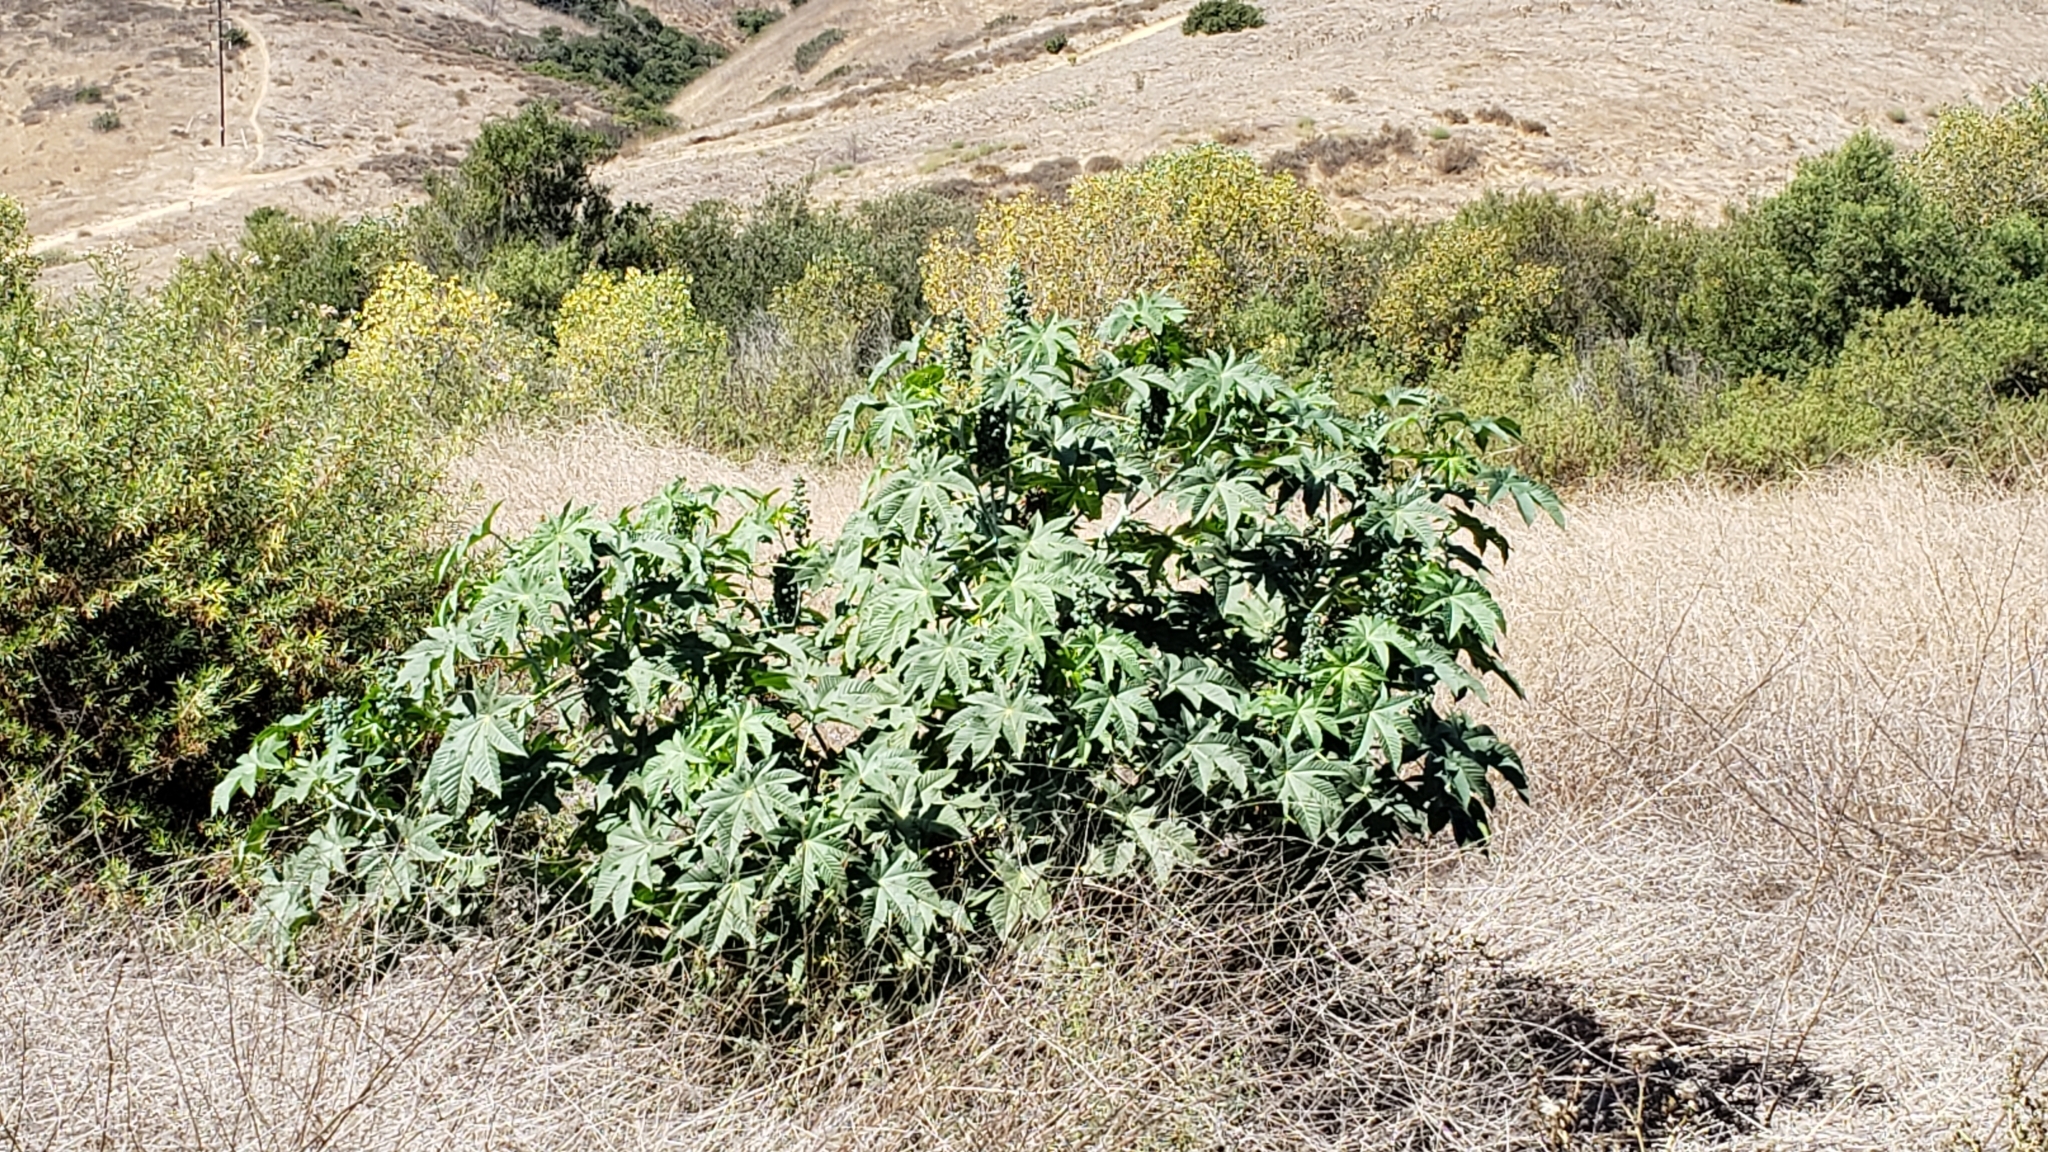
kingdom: Plantae
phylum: Tracheophyta
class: Magnoliopsida
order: Malpighiales
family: Euphorbiaceae
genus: Ricinus
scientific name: Ricinus communis
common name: Castor-oil-plant
